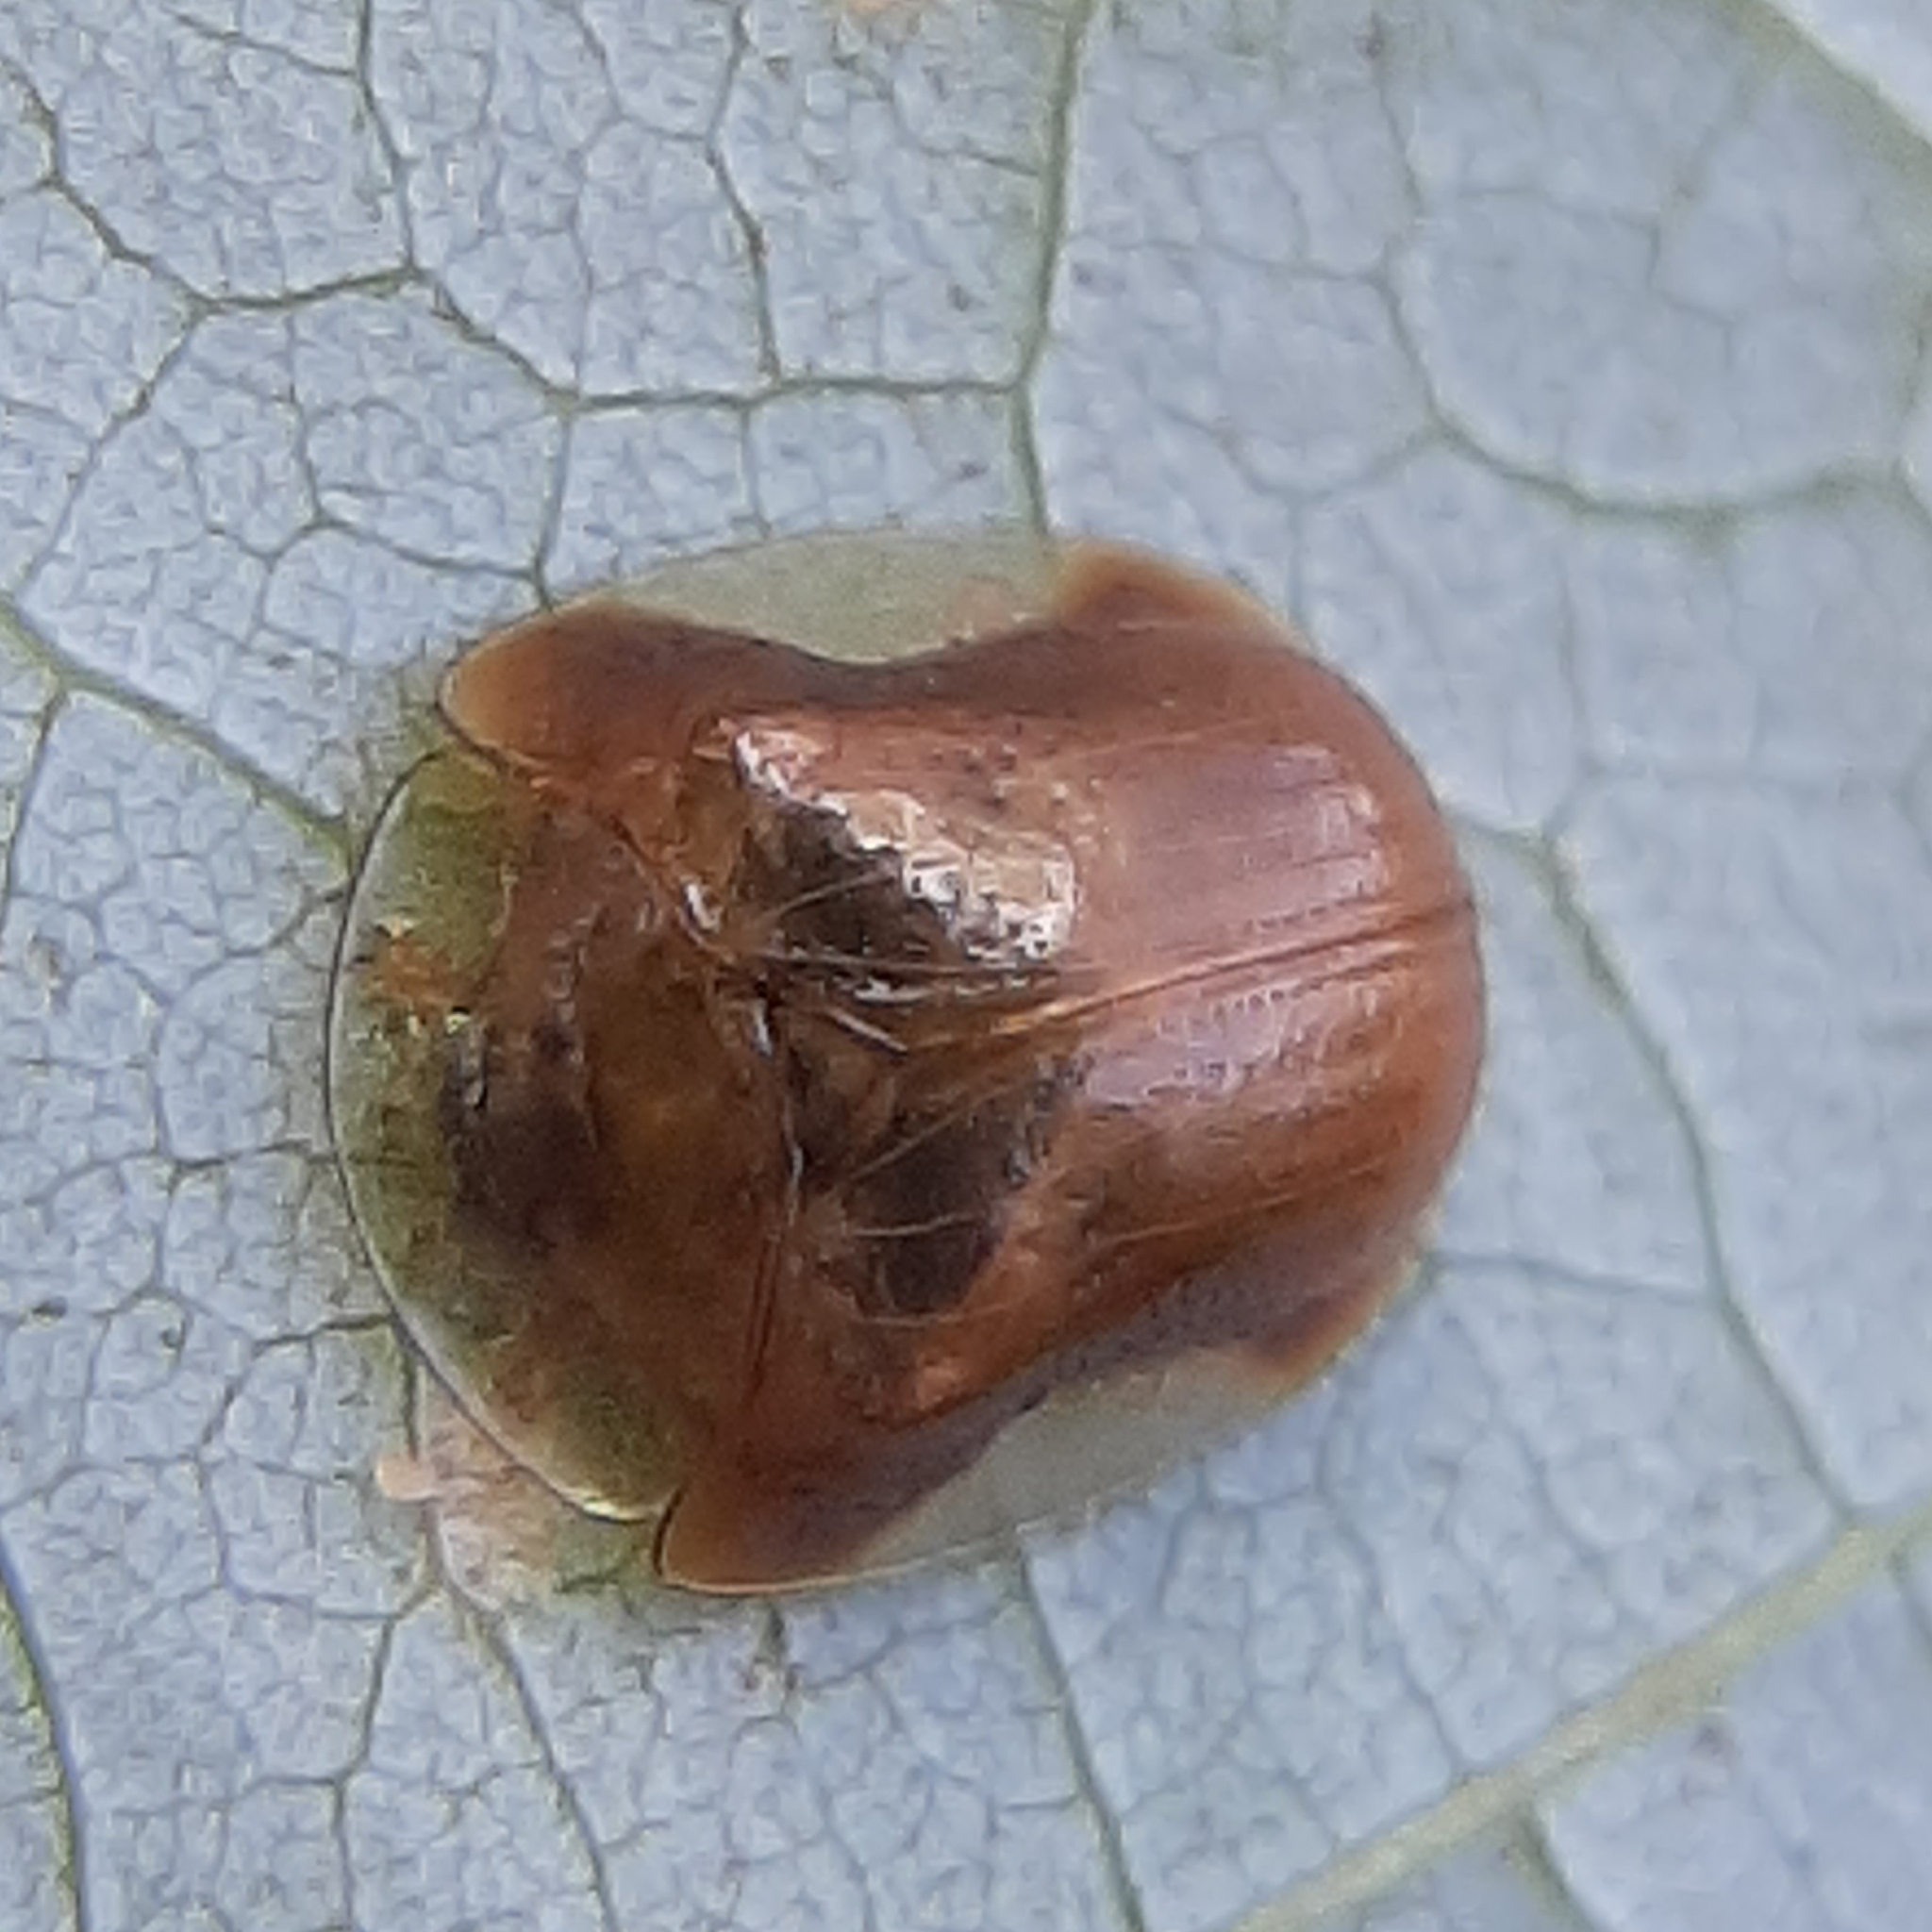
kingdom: Animalia
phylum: Arthropoda
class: Insecta
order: Coleoptera
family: Chrysomelidae
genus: Charidotella
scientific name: Charidotella purpurata
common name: Small orange tortoise beetle
